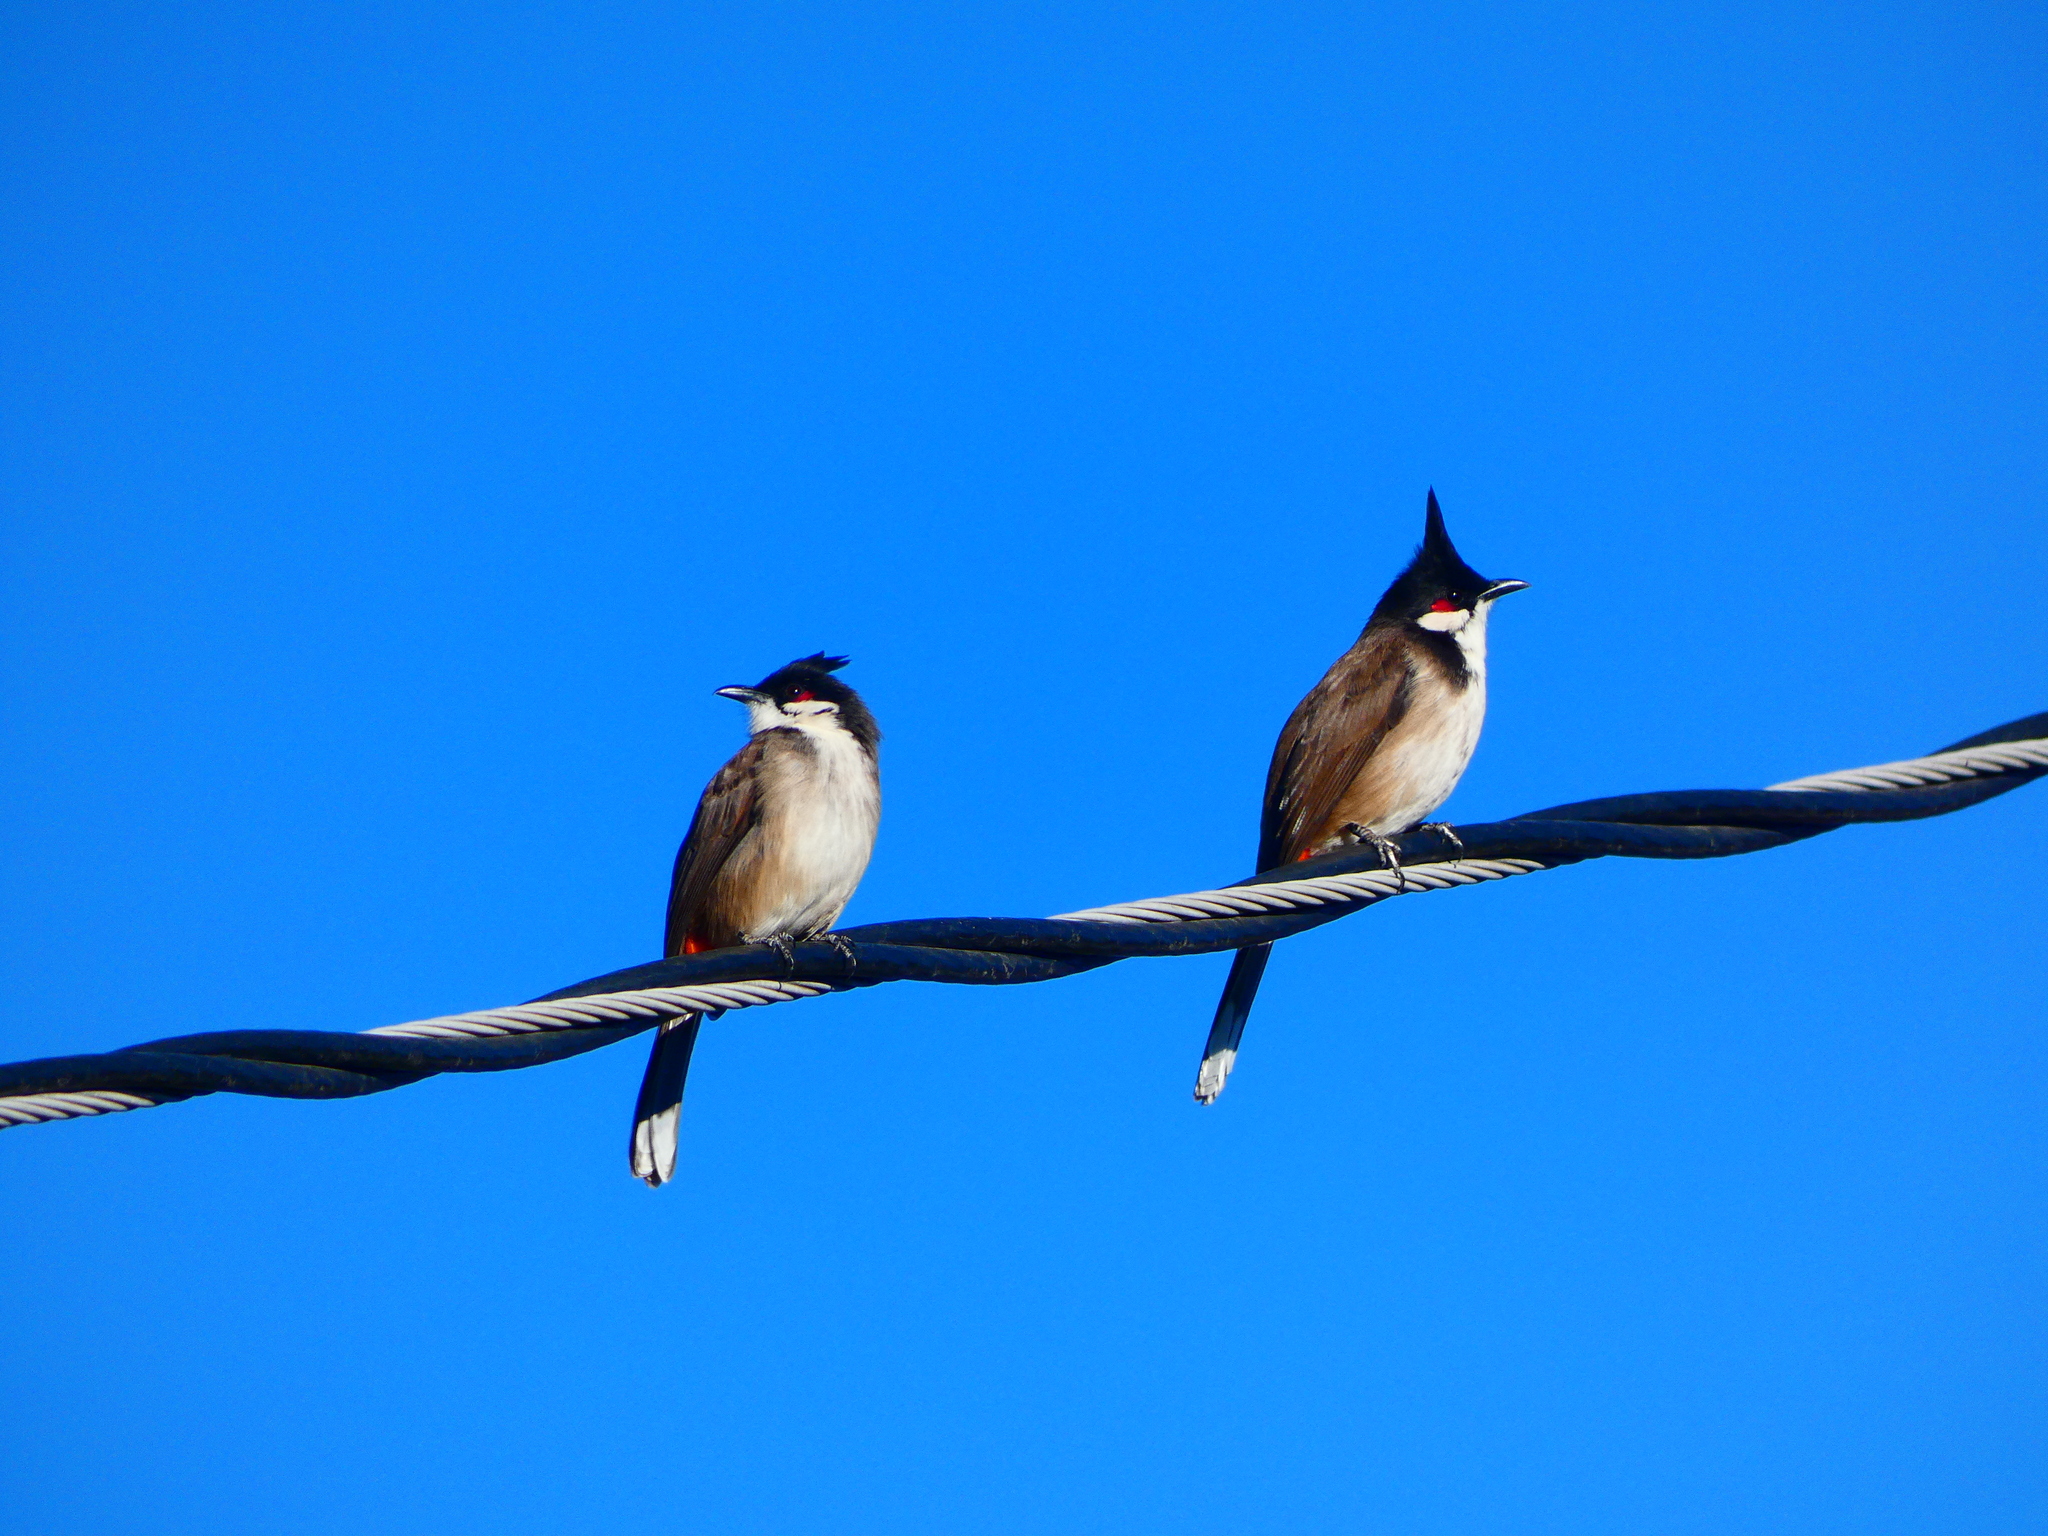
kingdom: Animalia
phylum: Chordata
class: Aves
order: Passeriformes
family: Pycnonotidae
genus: Pycnonotus
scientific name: Pycnonotus jocosus
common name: Red-whiskered bulbul
